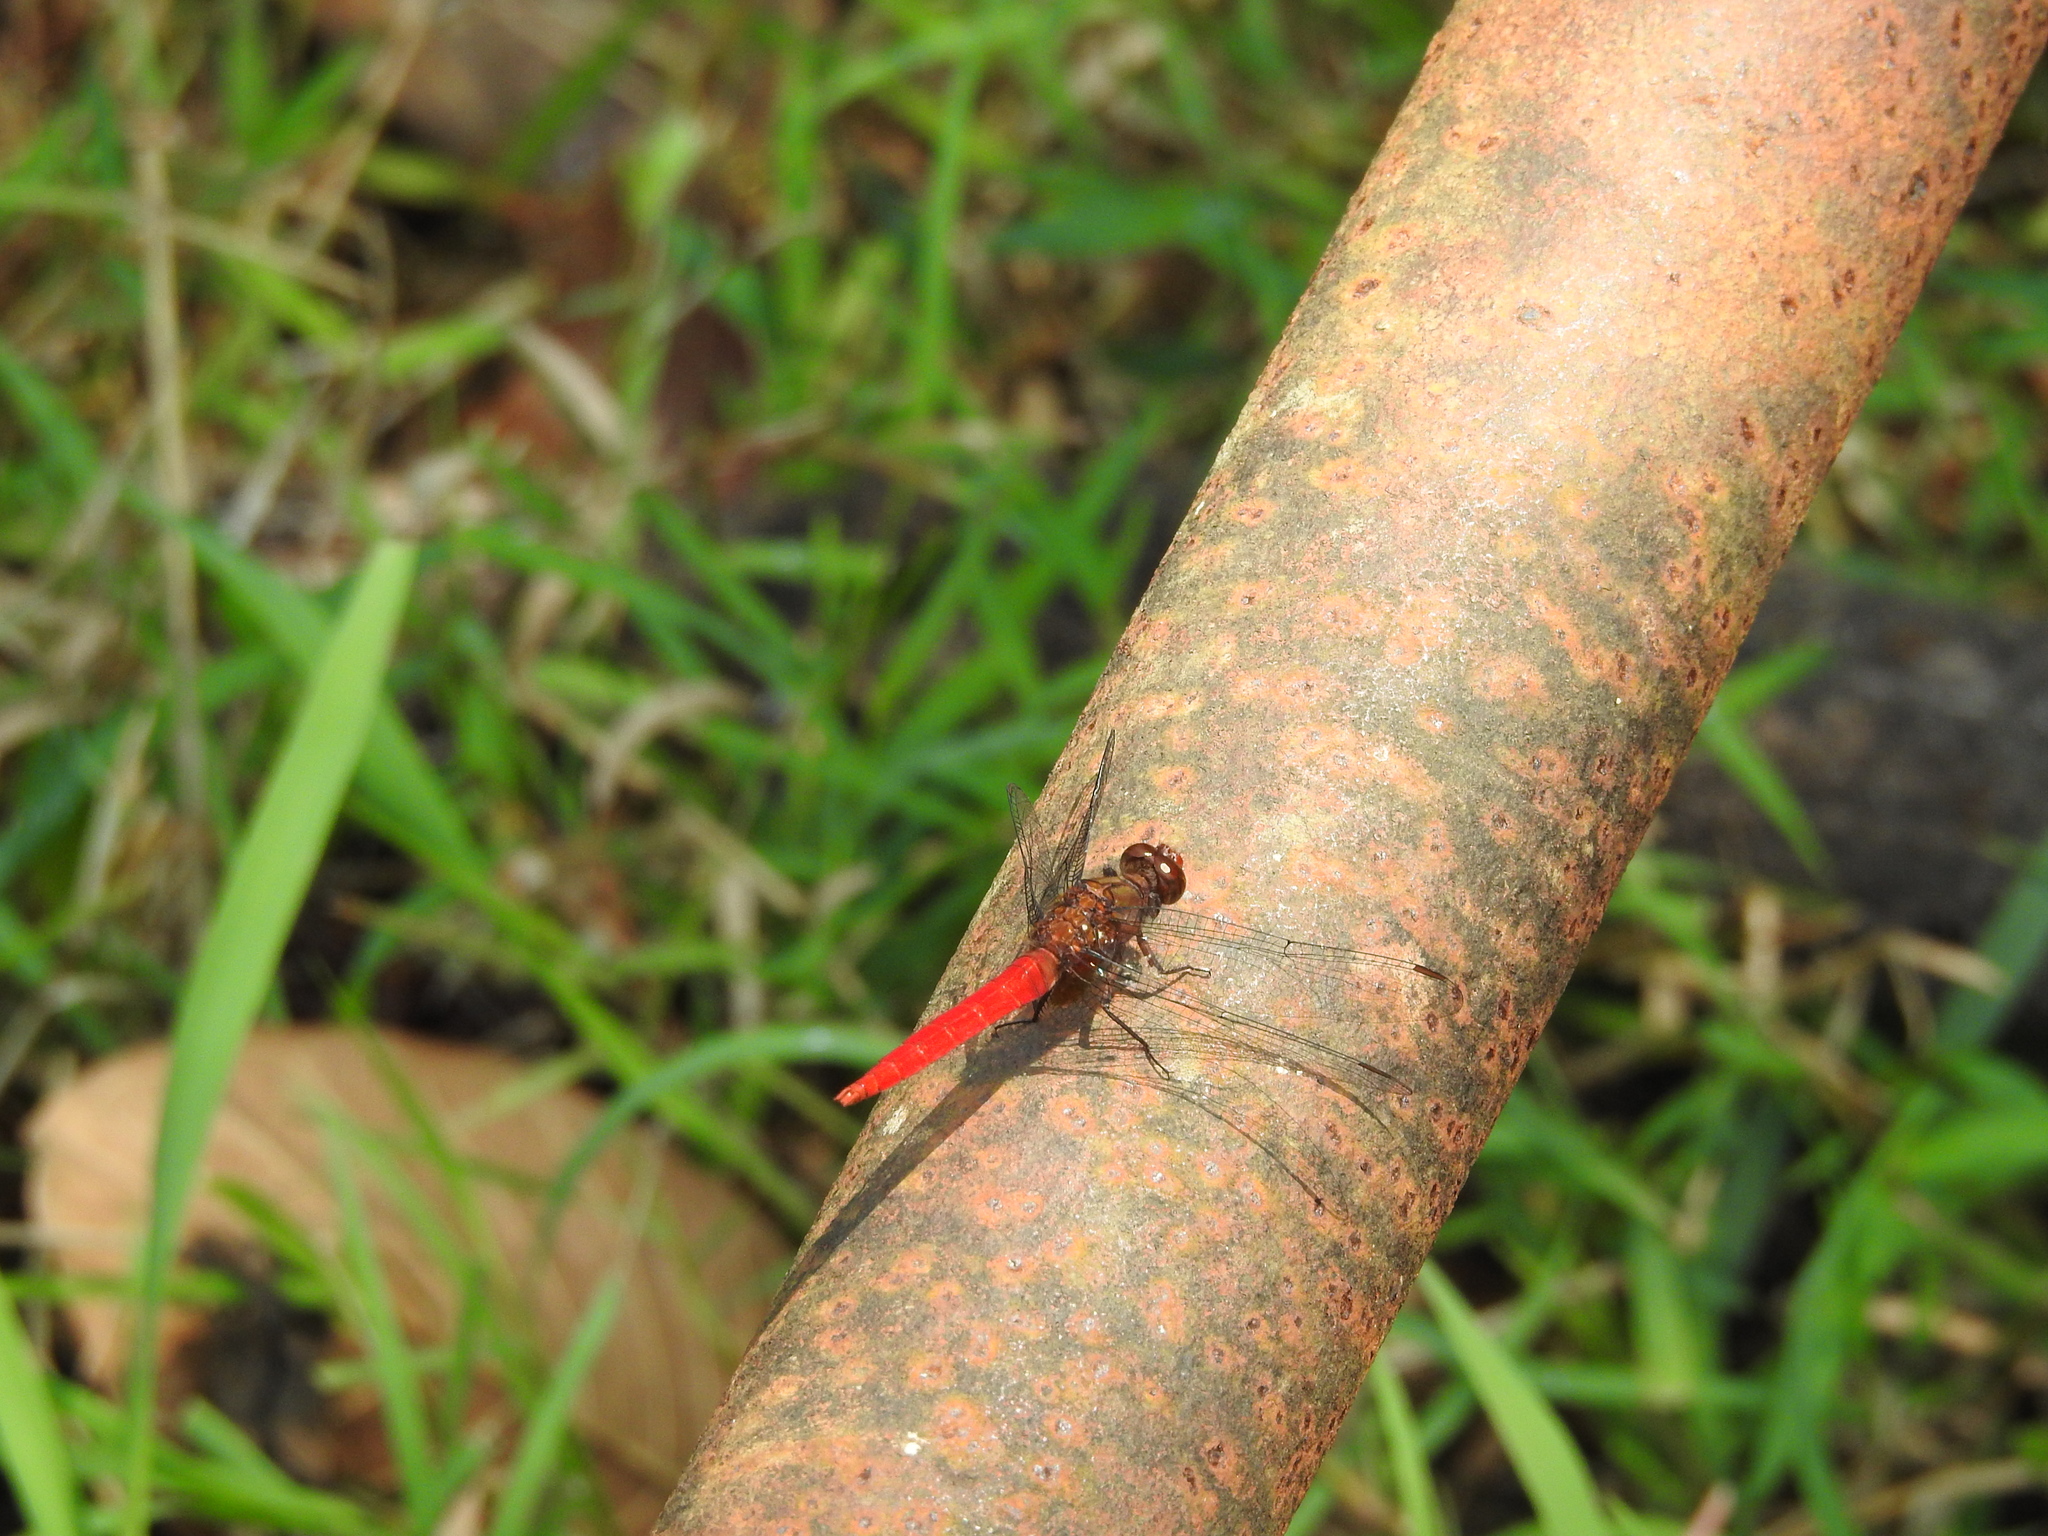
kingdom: Animalia
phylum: Arthropoda
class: Insecta
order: Odonata
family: Libellulidae
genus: Orthetrum
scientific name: Orthetrum chrysis
